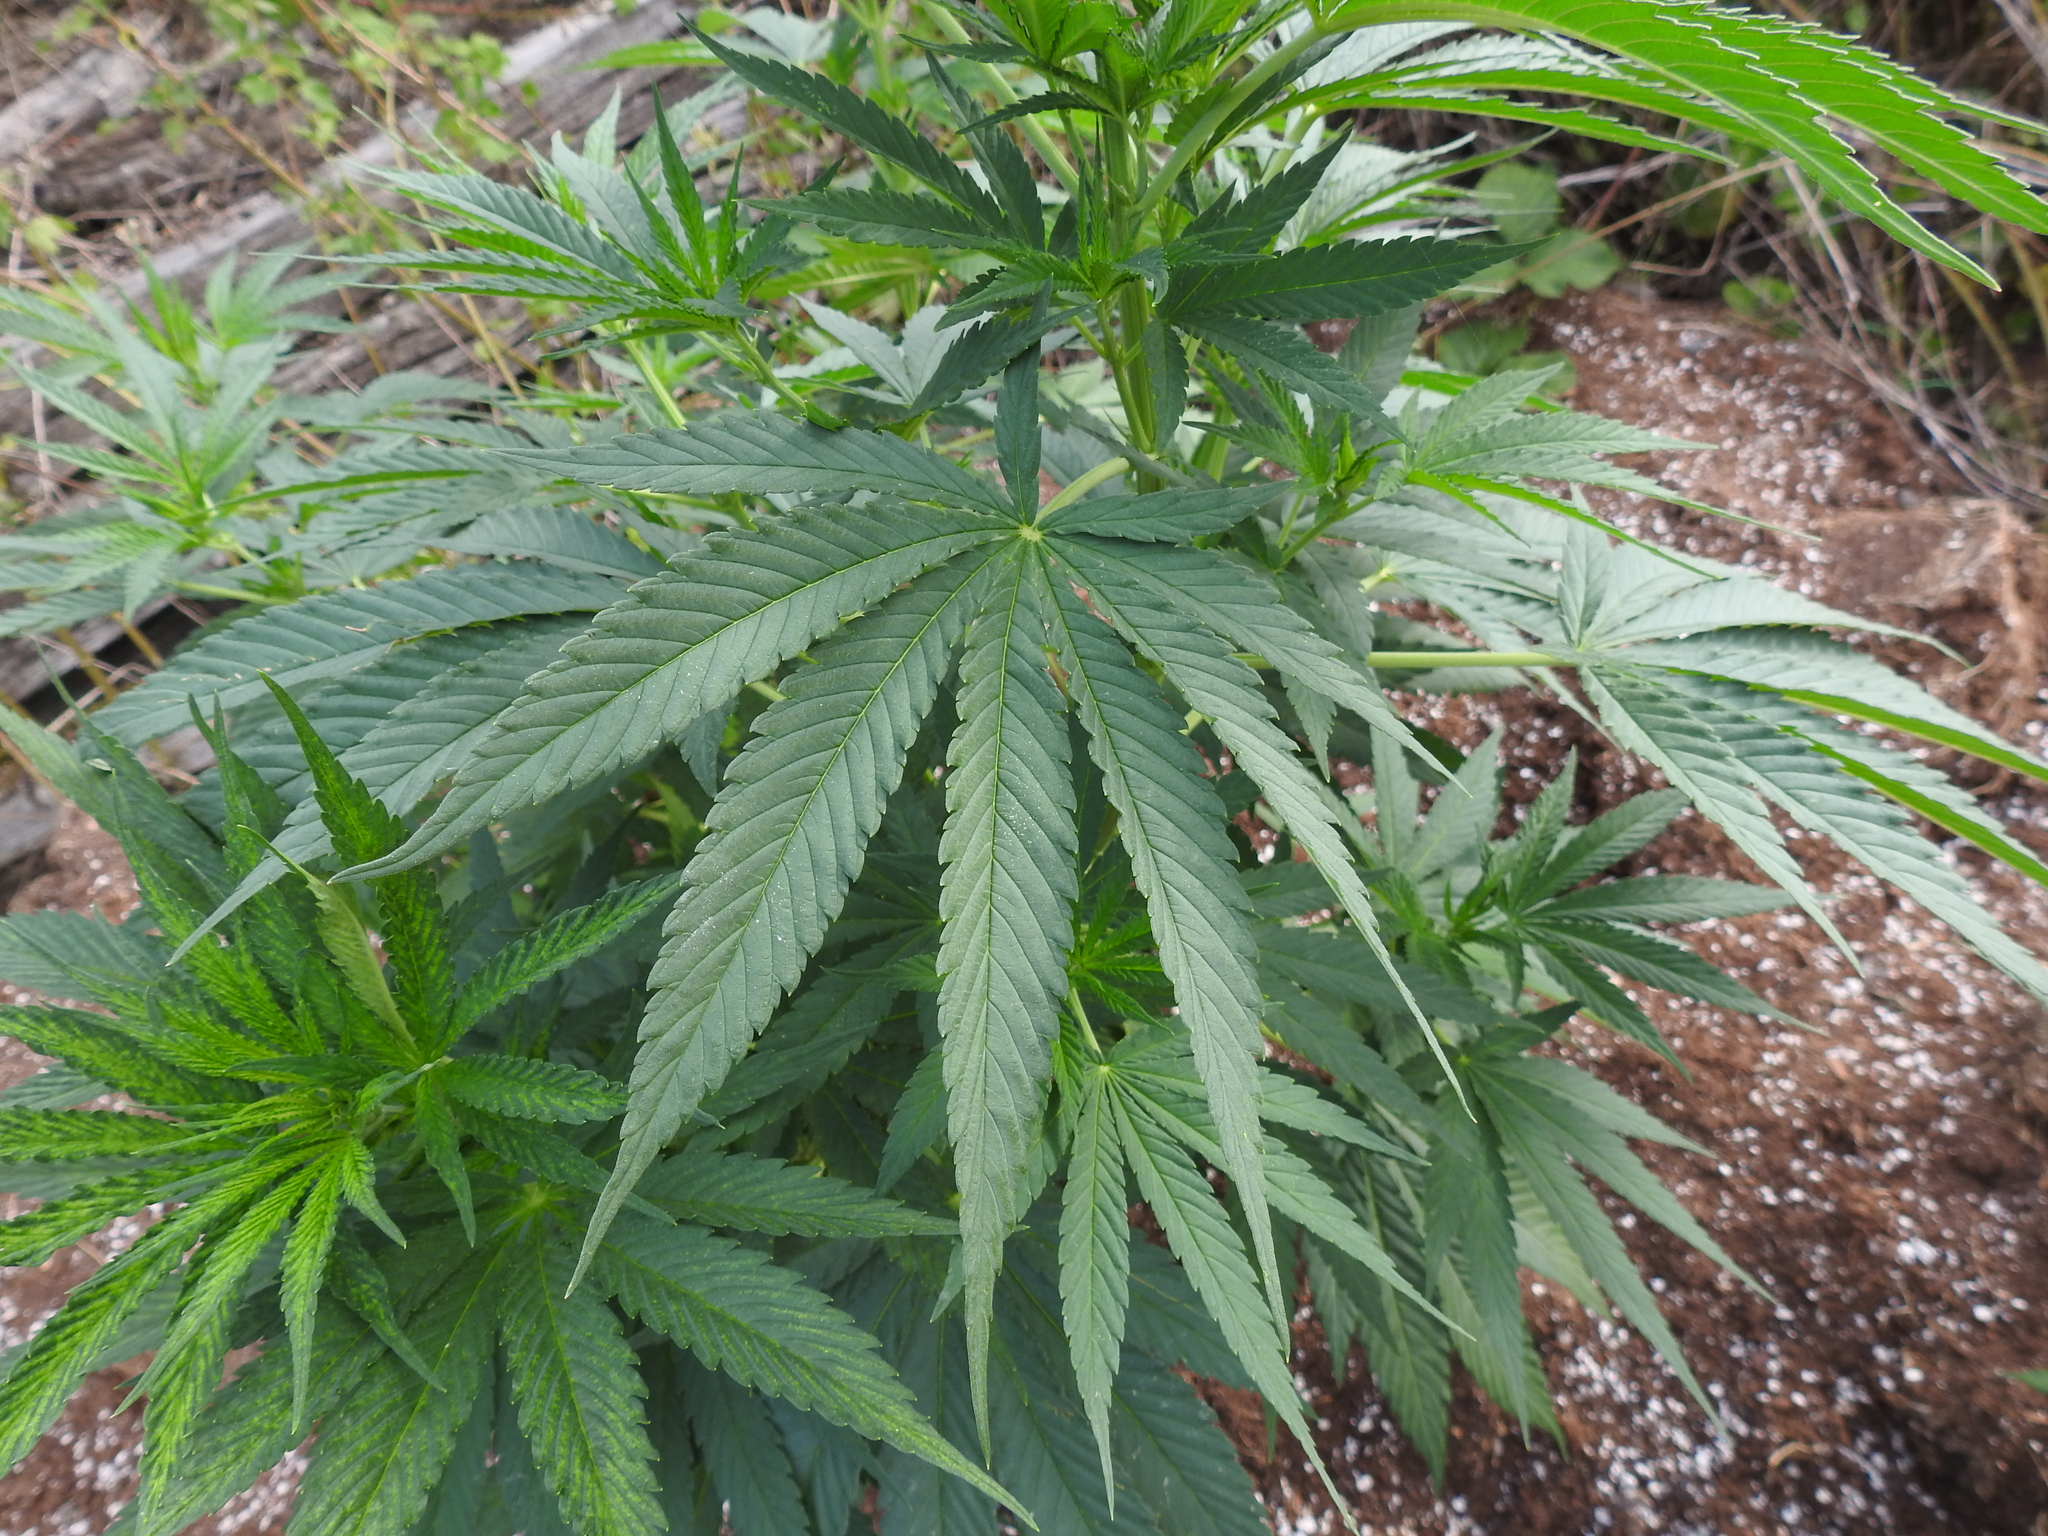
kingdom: Plantae
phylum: Tracheophyta
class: Magnoliopsida
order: Rosales
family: Cannabaceae
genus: Cannabis
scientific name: Cannabis sativa
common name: Hemp
